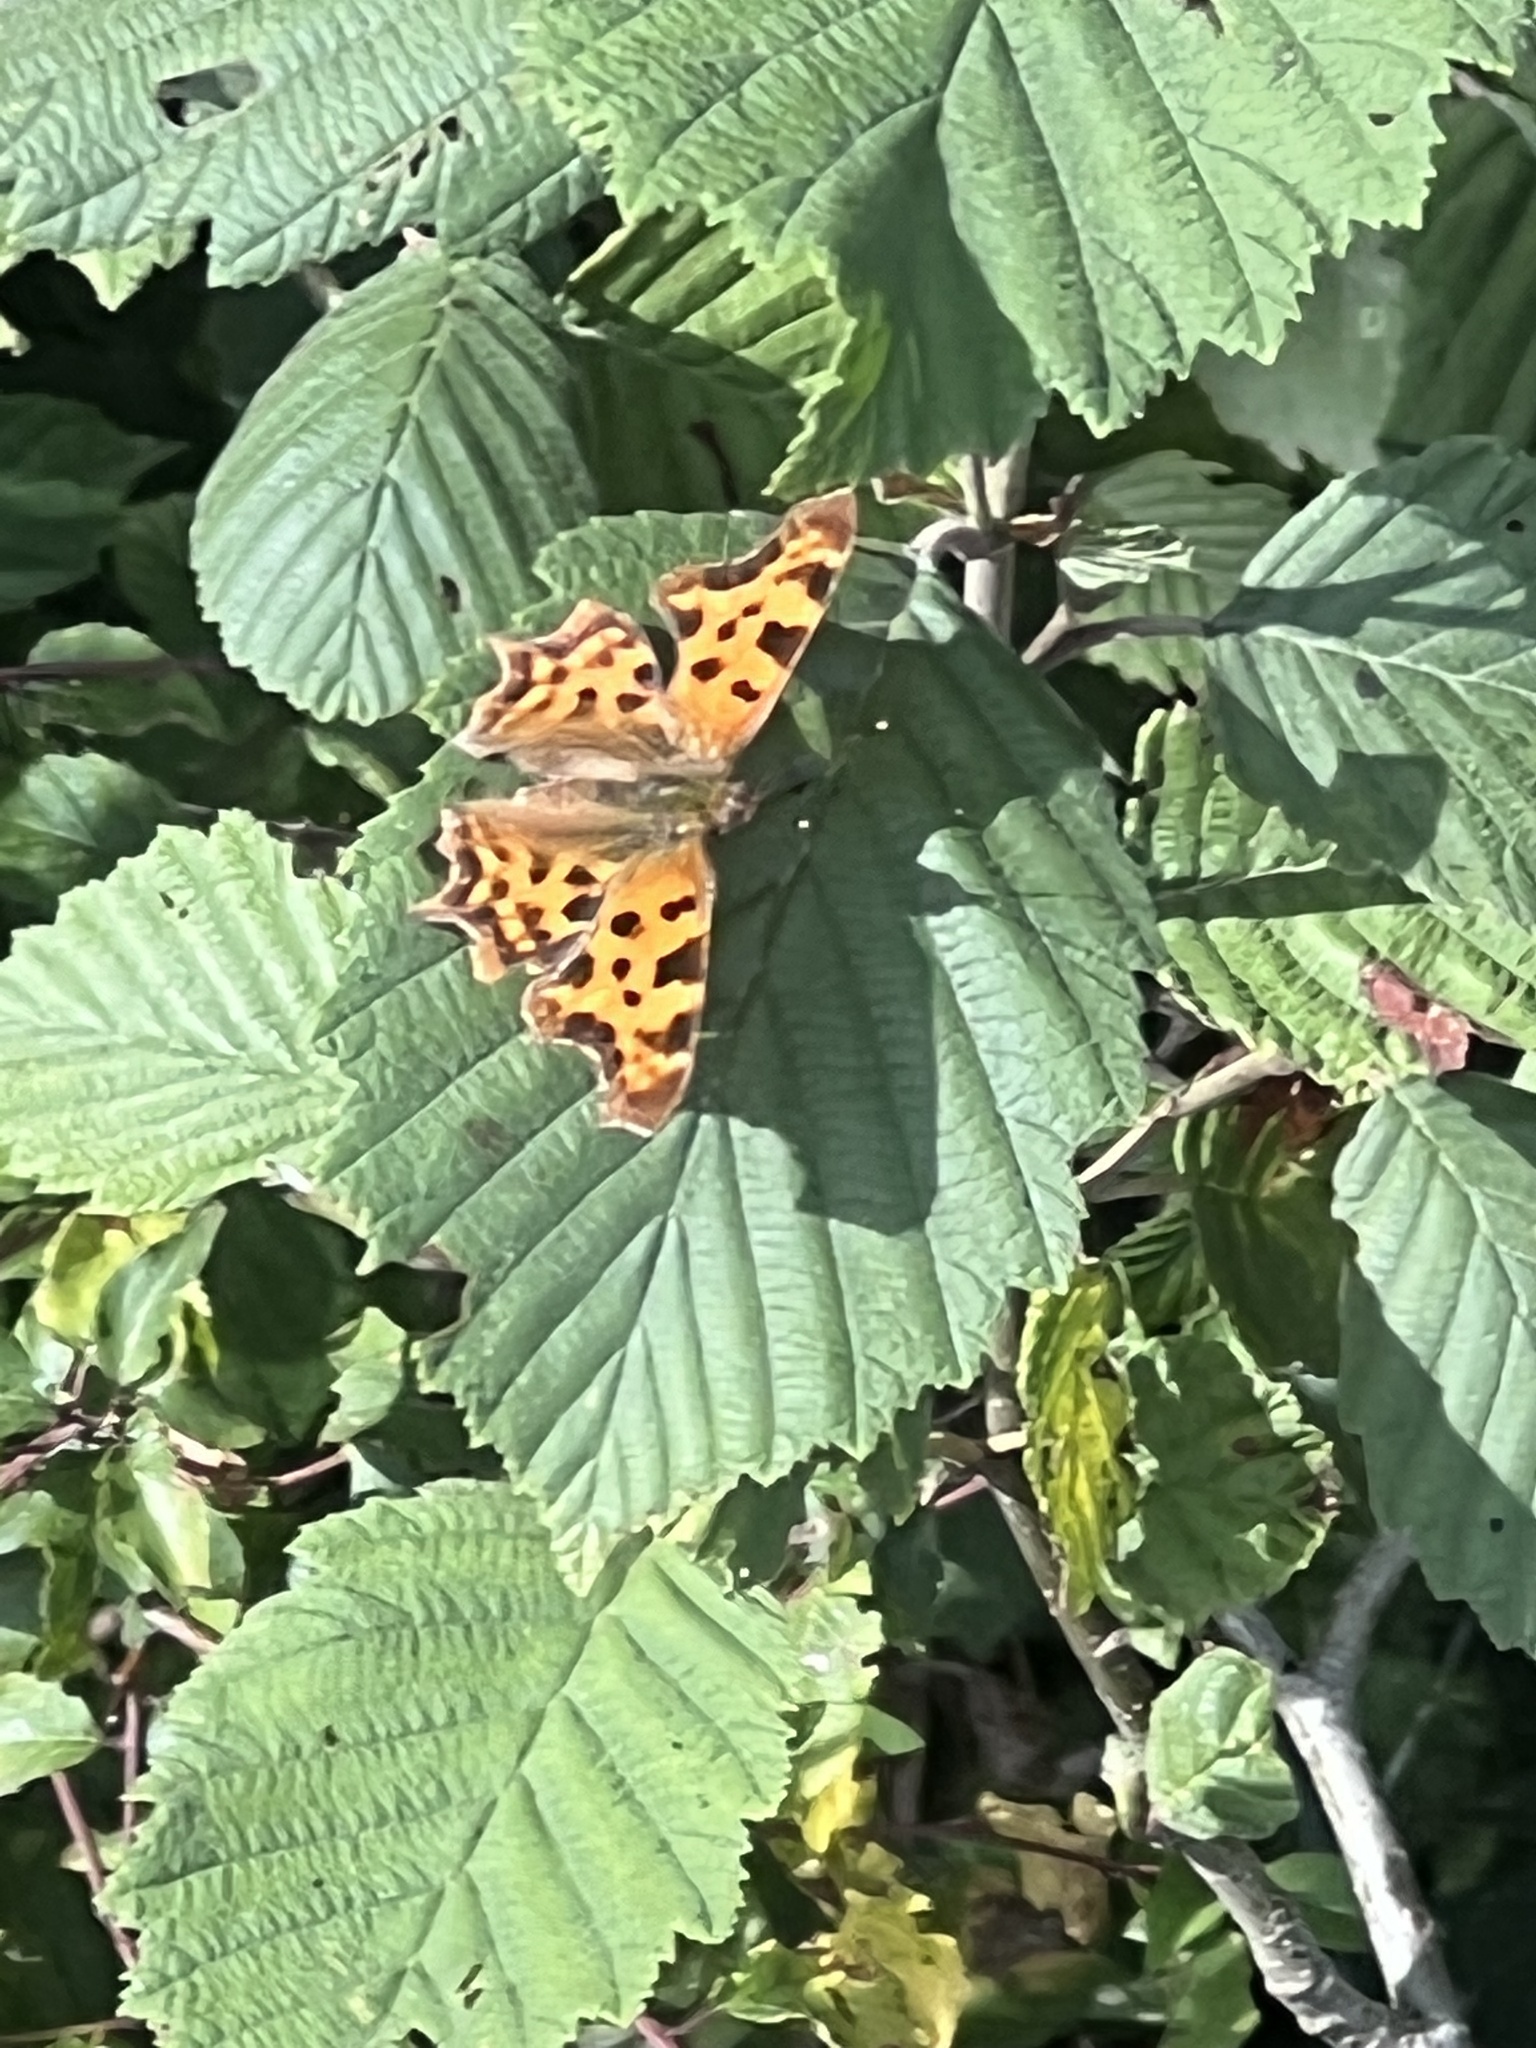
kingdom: Animalia
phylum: Arthropoda
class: Insecta
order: Lepidoptera
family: Nymphalidae
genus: Polygonia
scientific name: Polygonia c-album
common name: Comma
